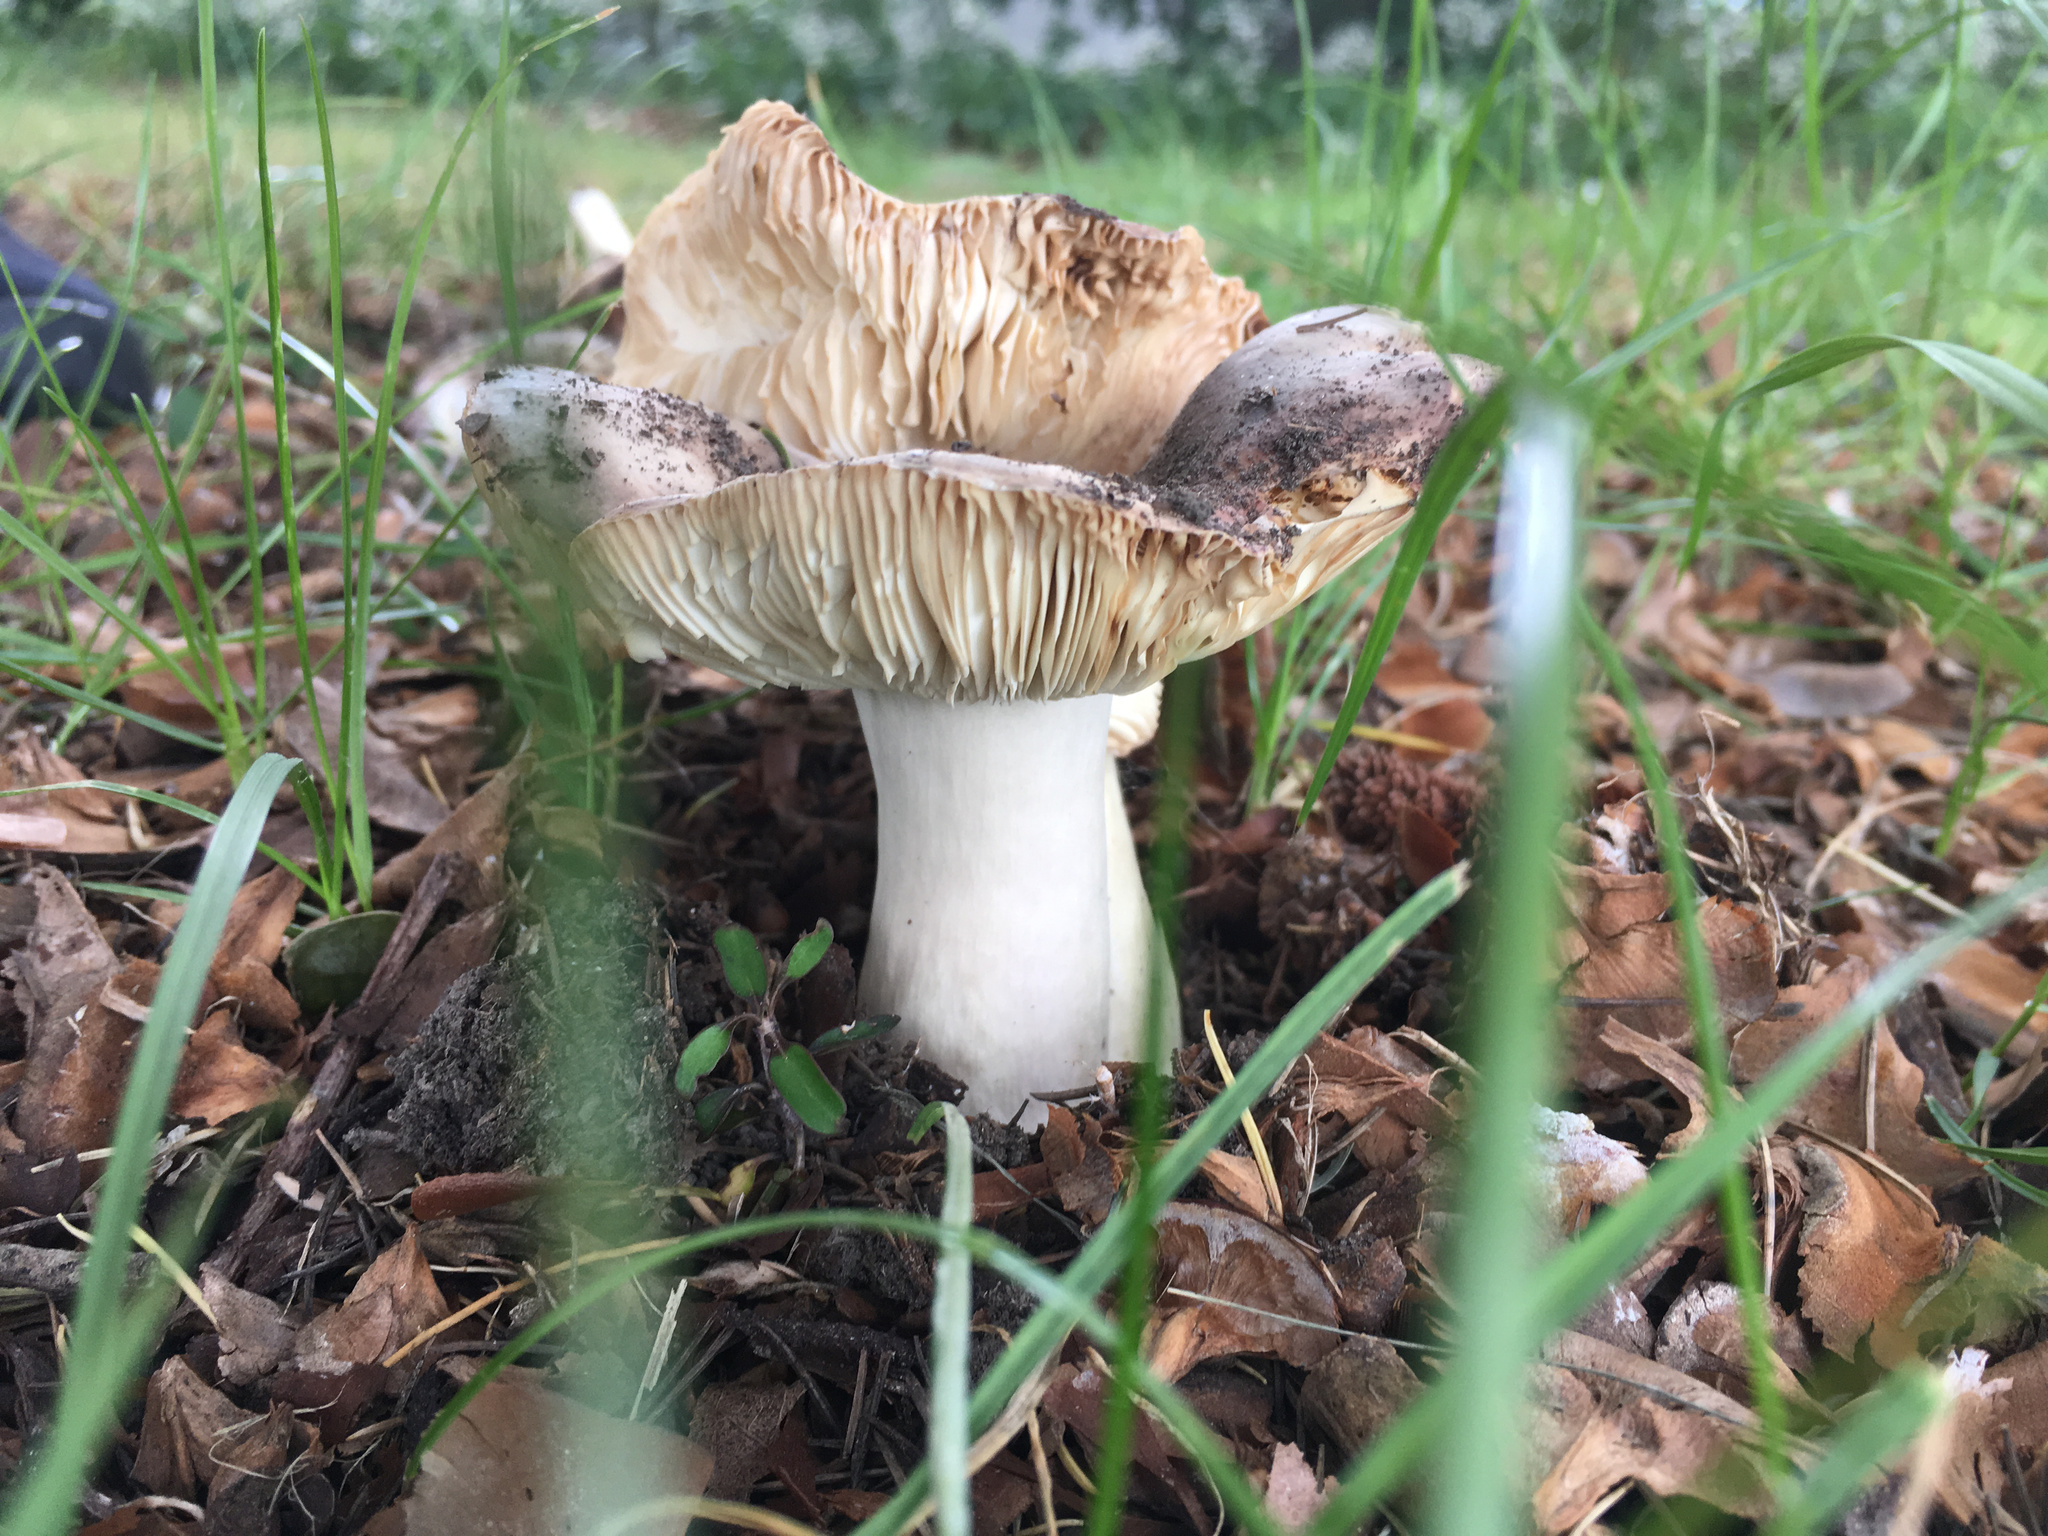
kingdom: Fungi
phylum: Basidiomycota
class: Agaricomycetes
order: Russulales
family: Russulaceae
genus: Russula
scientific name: Russula grisea
